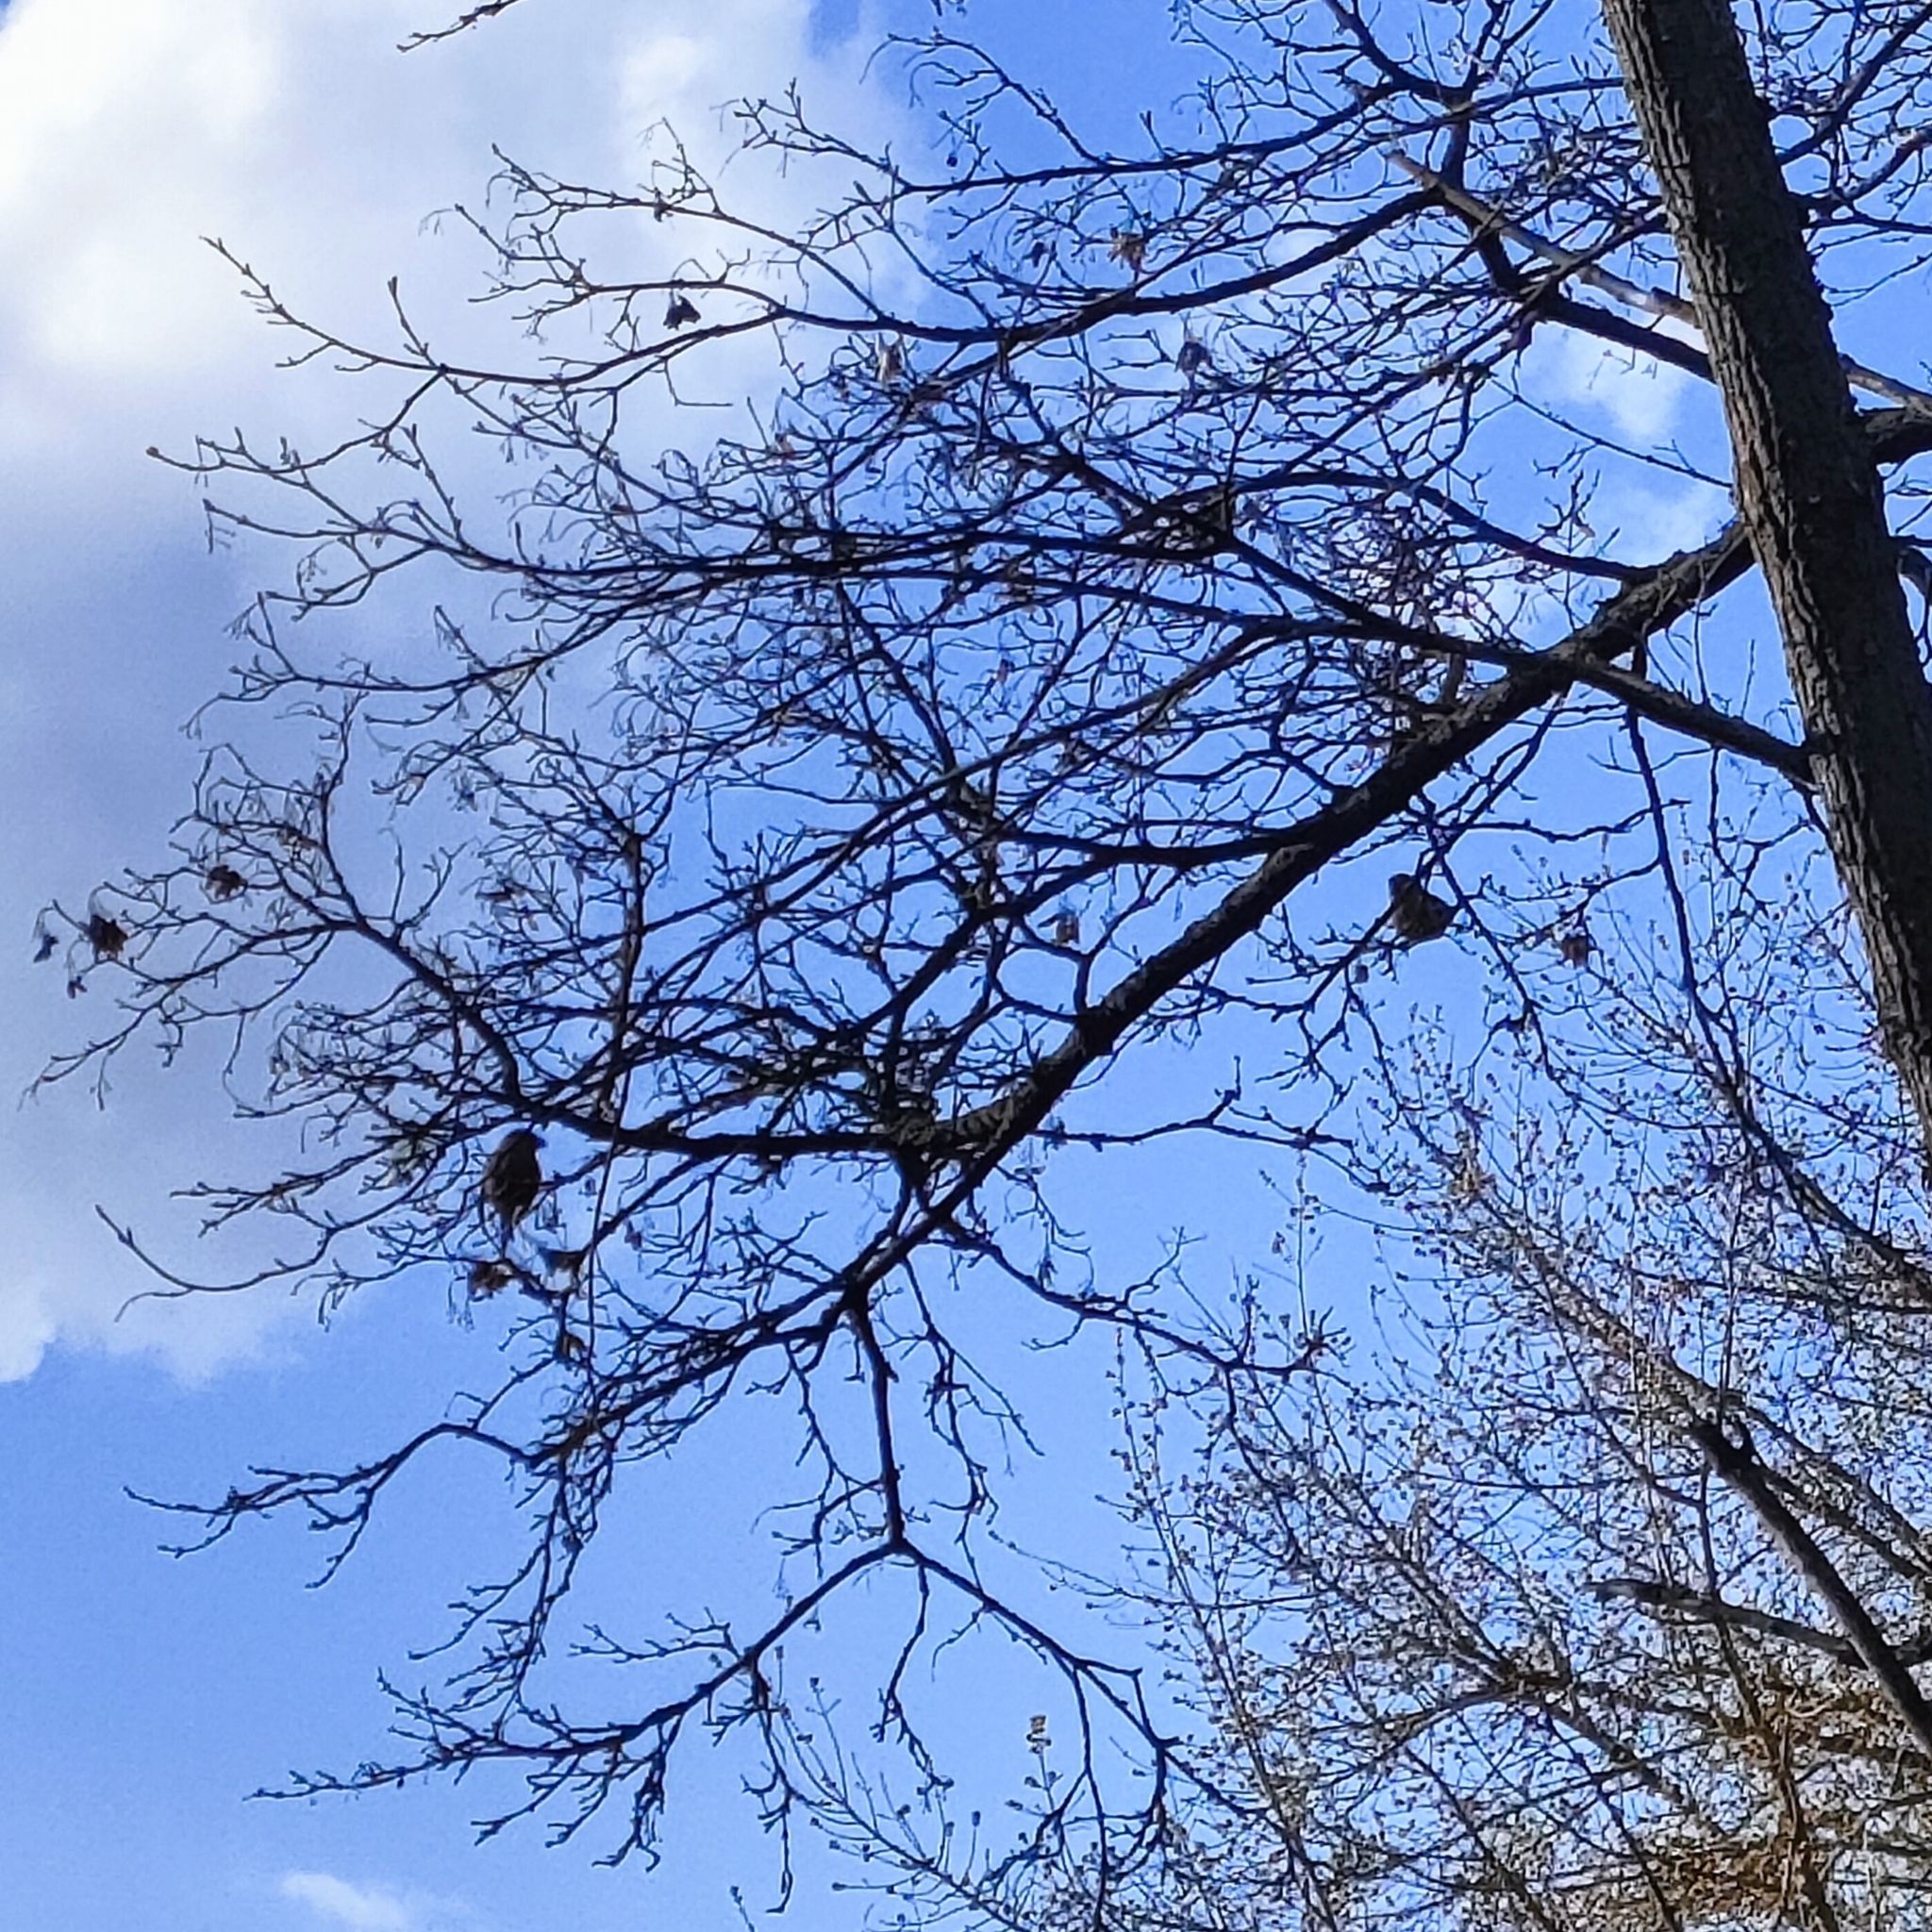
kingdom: Animalia
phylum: Chordata
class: Aves
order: Passeriformes
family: Fringillidae
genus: Coccothraustes
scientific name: Coccothraustes coccothraustes
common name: Hawfinch
